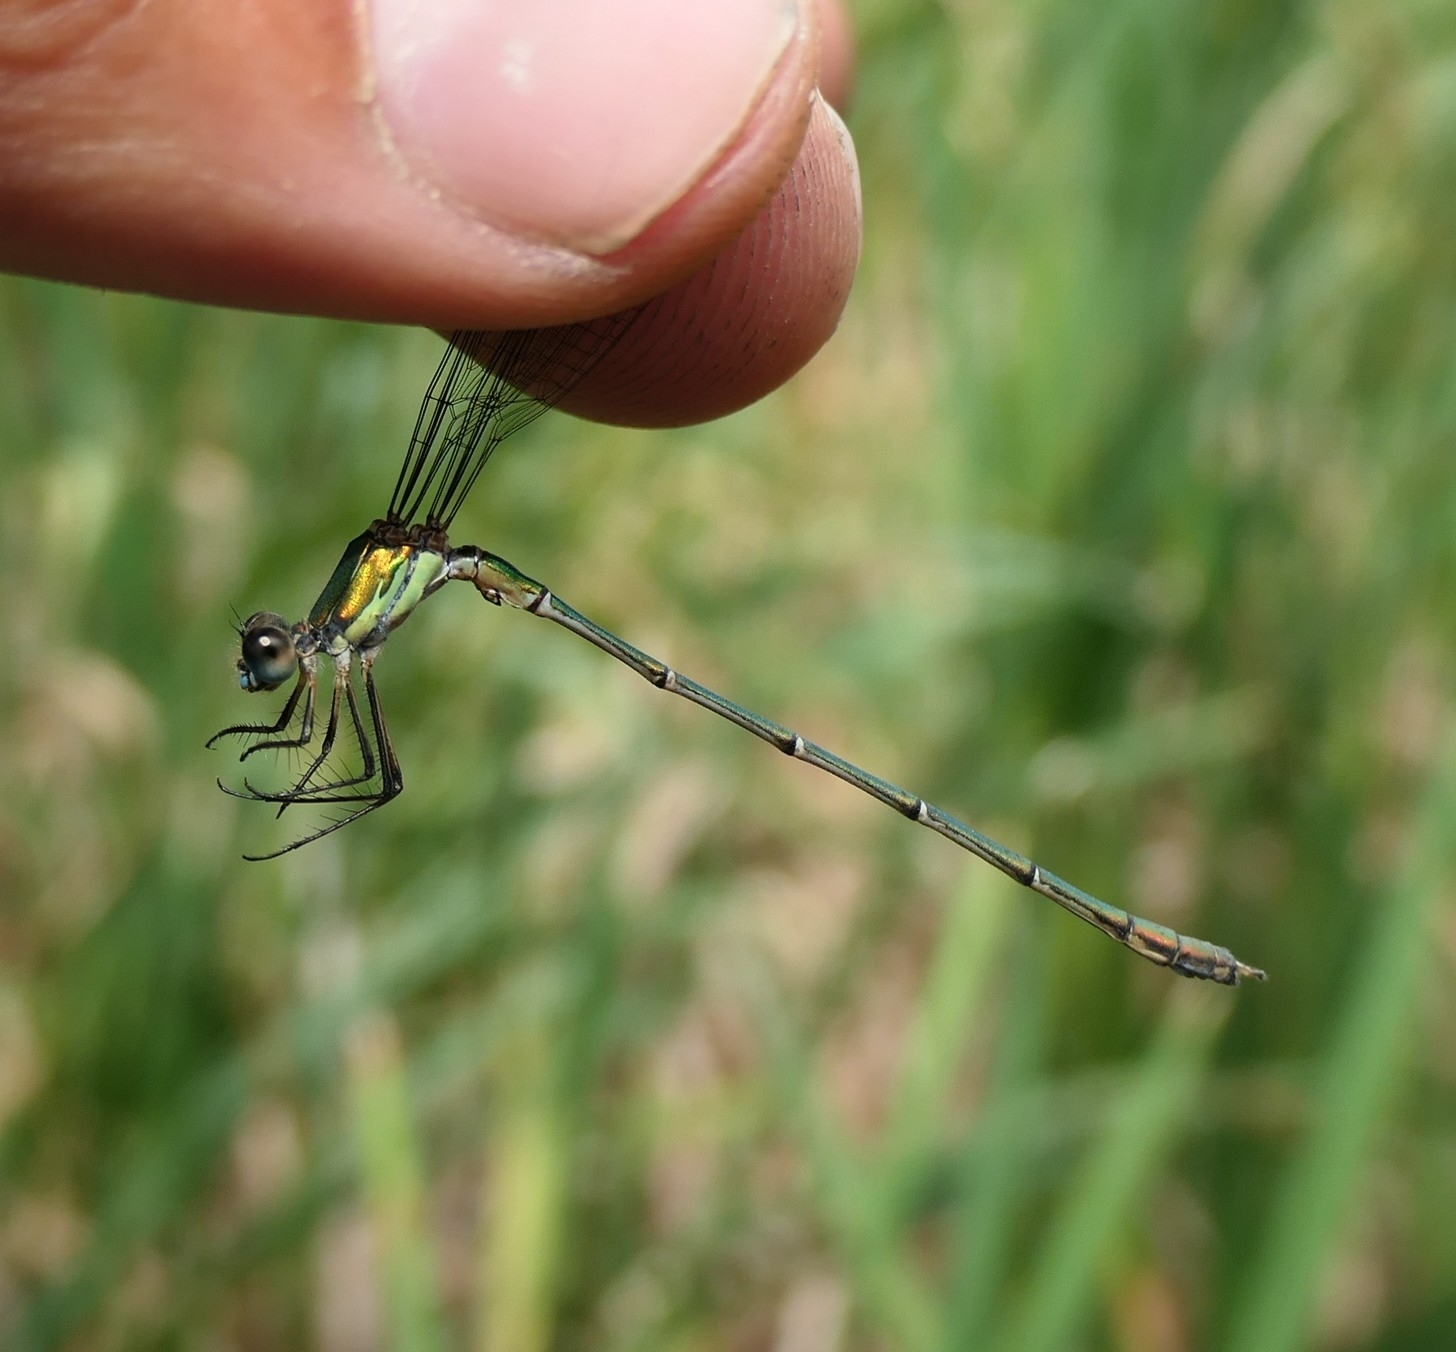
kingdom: Animalia
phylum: Arthropoda
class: Insecta
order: Odonata
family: Lestidae
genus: Chalcolestes
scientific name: Chalcolestes viridis
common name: Green emerald damselfly
